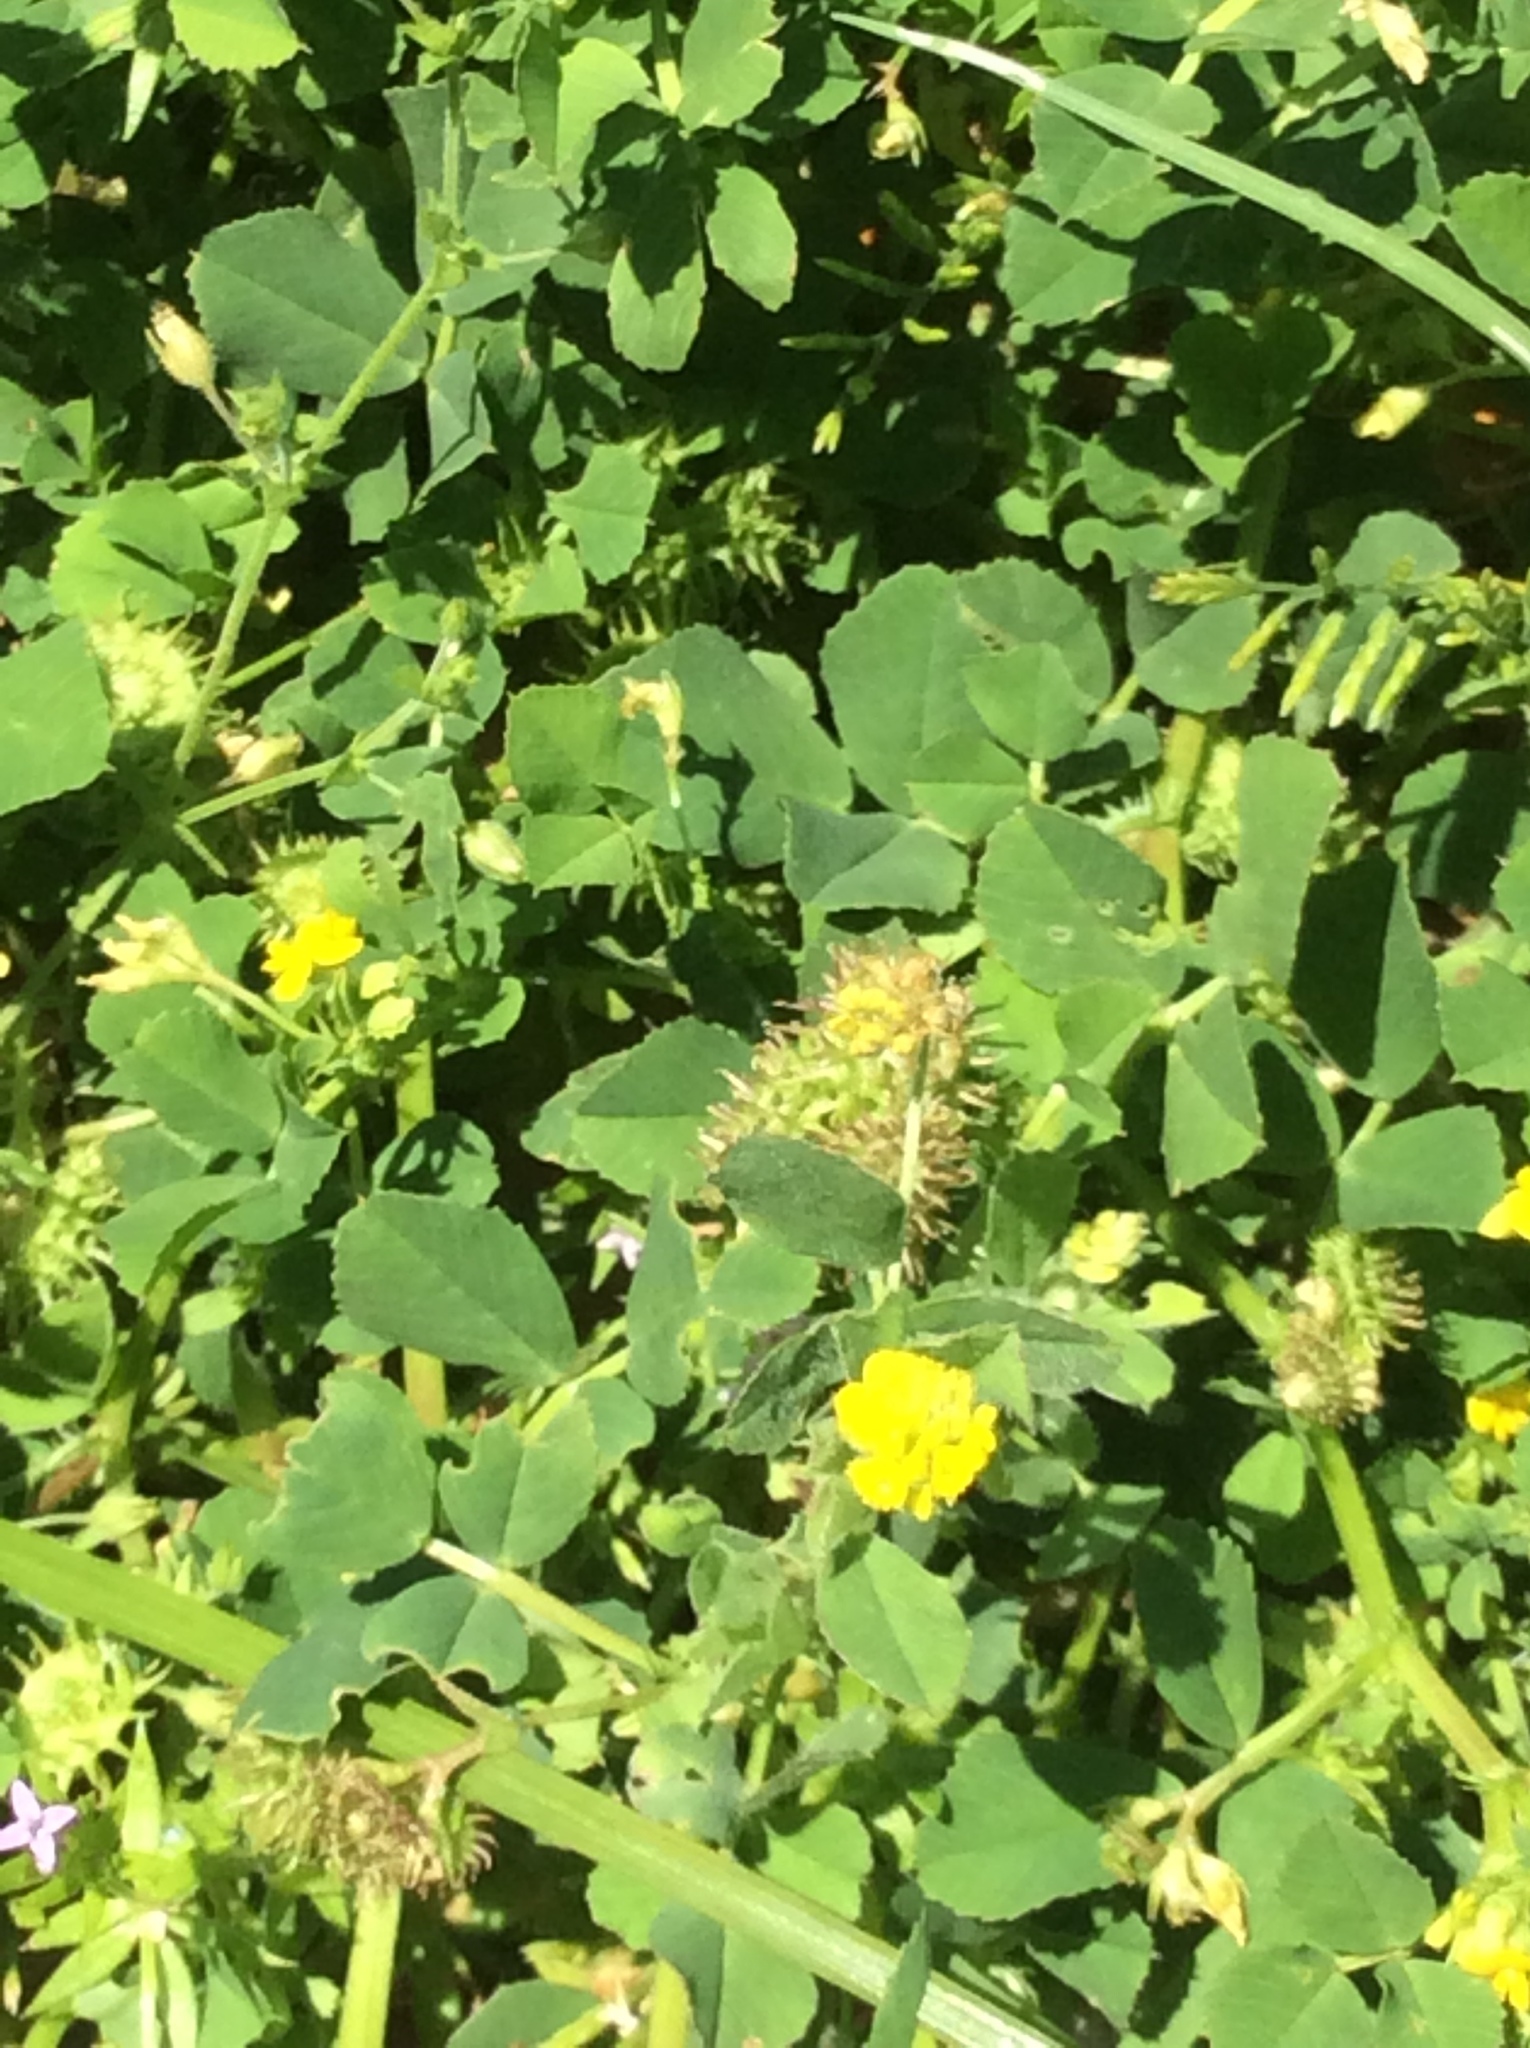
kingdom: Plantae
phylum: Tracheophyta
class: Magnoliopsida
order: Fabales
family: Fabaceae
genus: Medicago
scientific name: Medicago polymorpha
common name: Burclover
